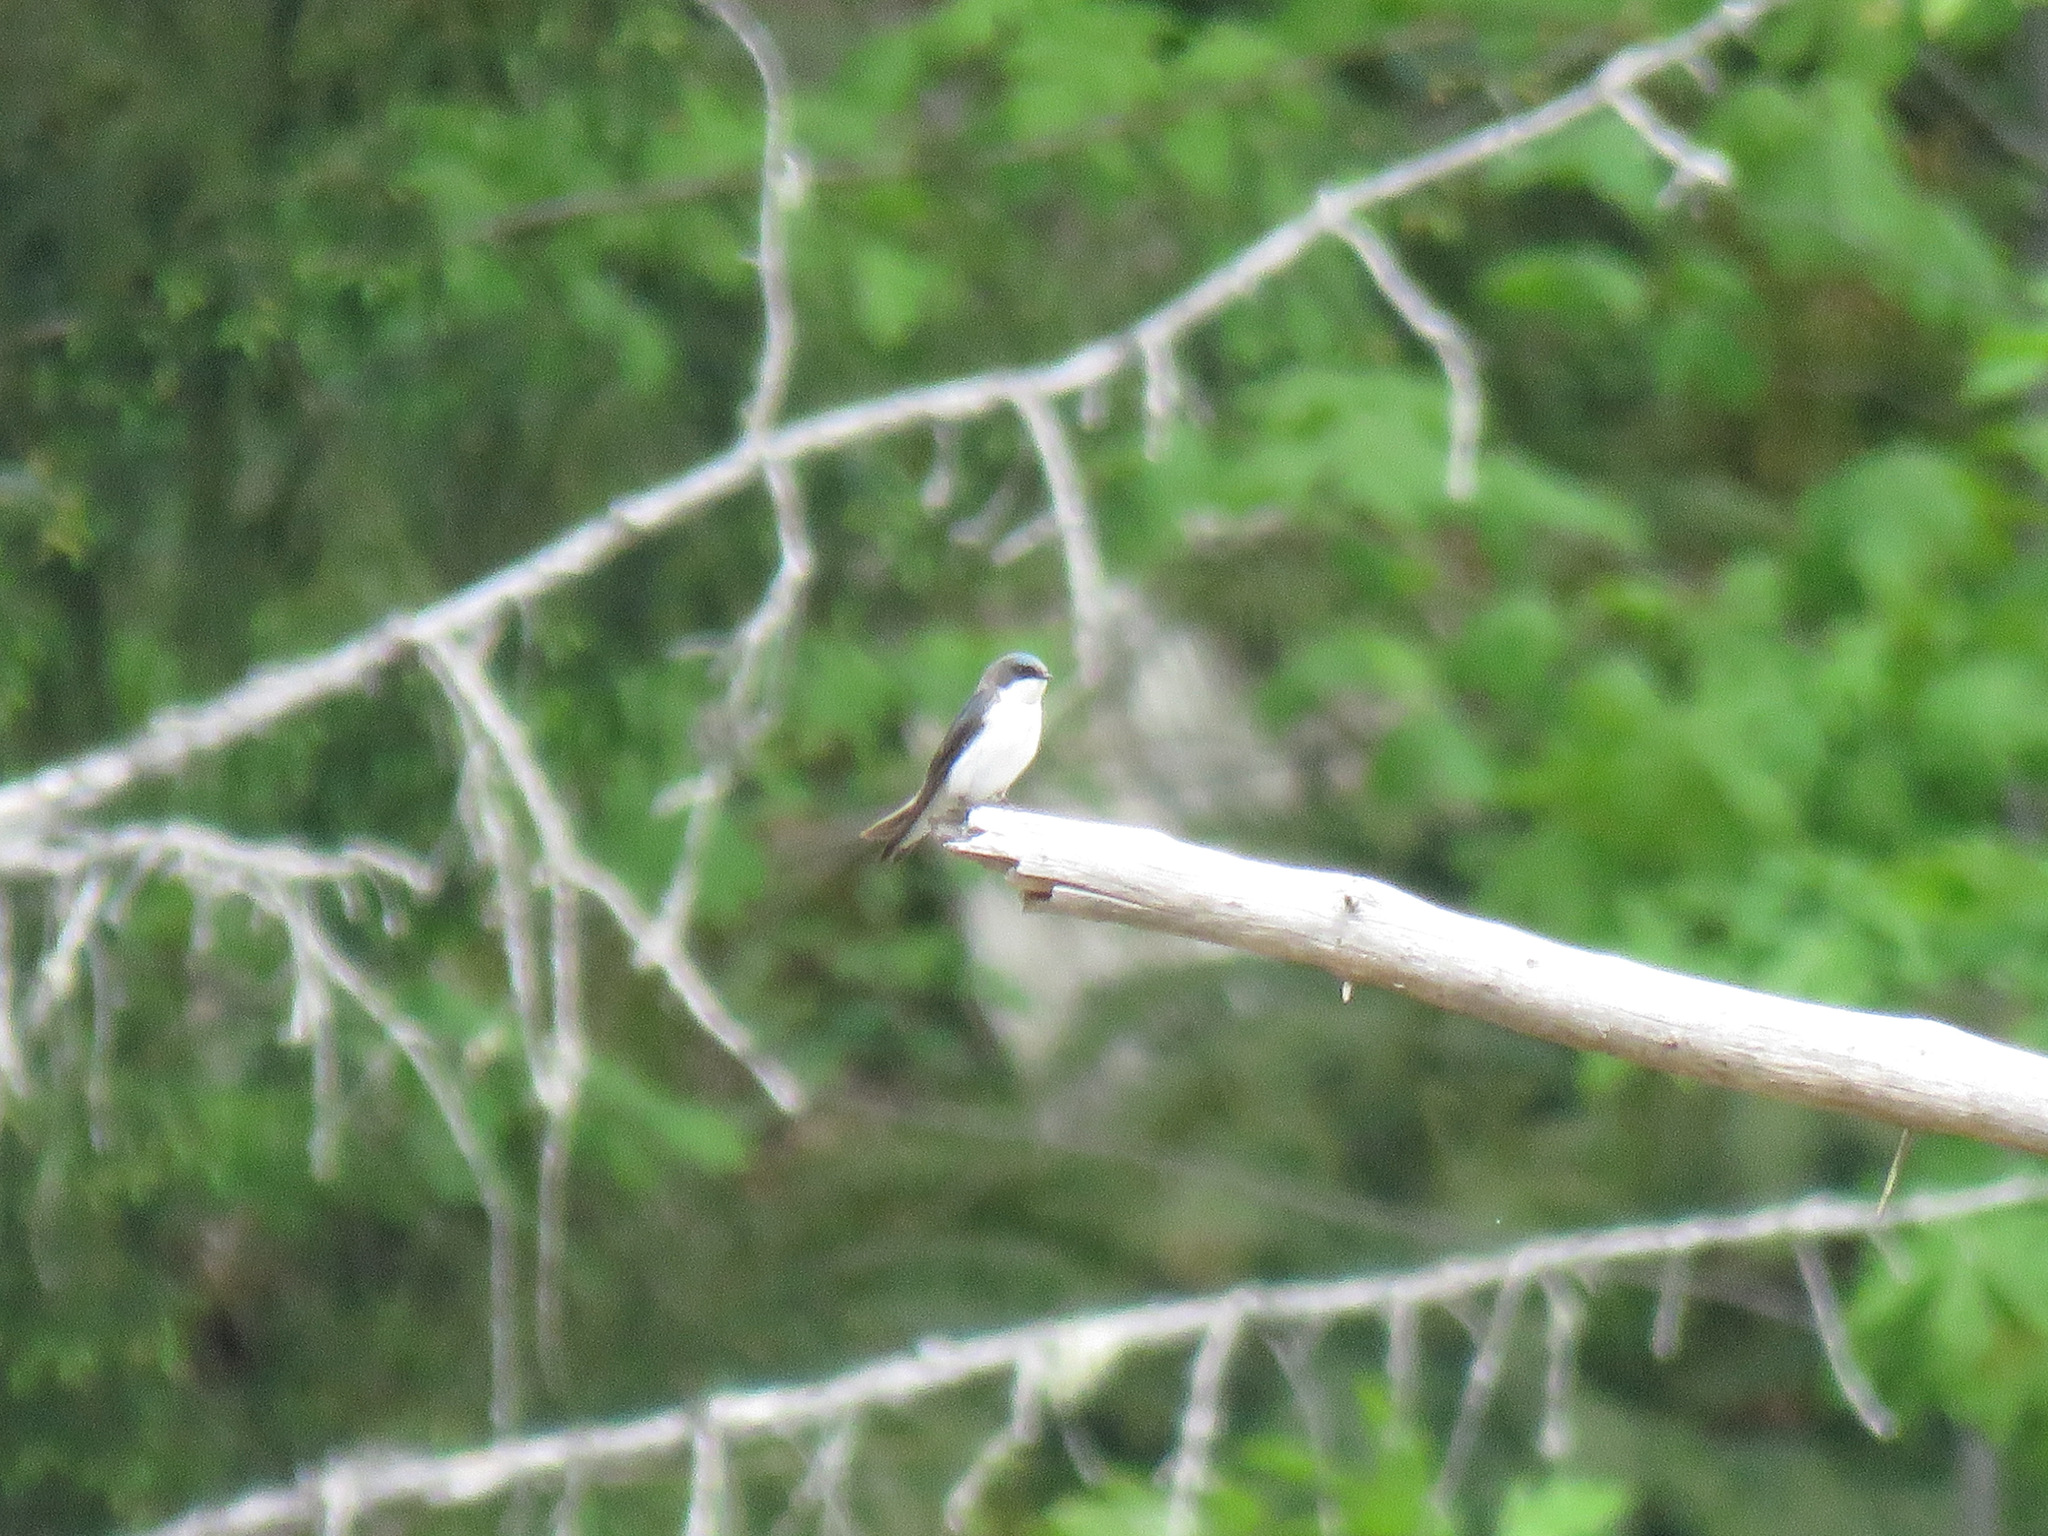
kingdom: Animalia
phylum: Chordata
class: Aves
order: Passeriformes
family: Hirundinidae
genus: Tachycineta
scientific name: Tachycineta bicolor
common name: Tree swallow
